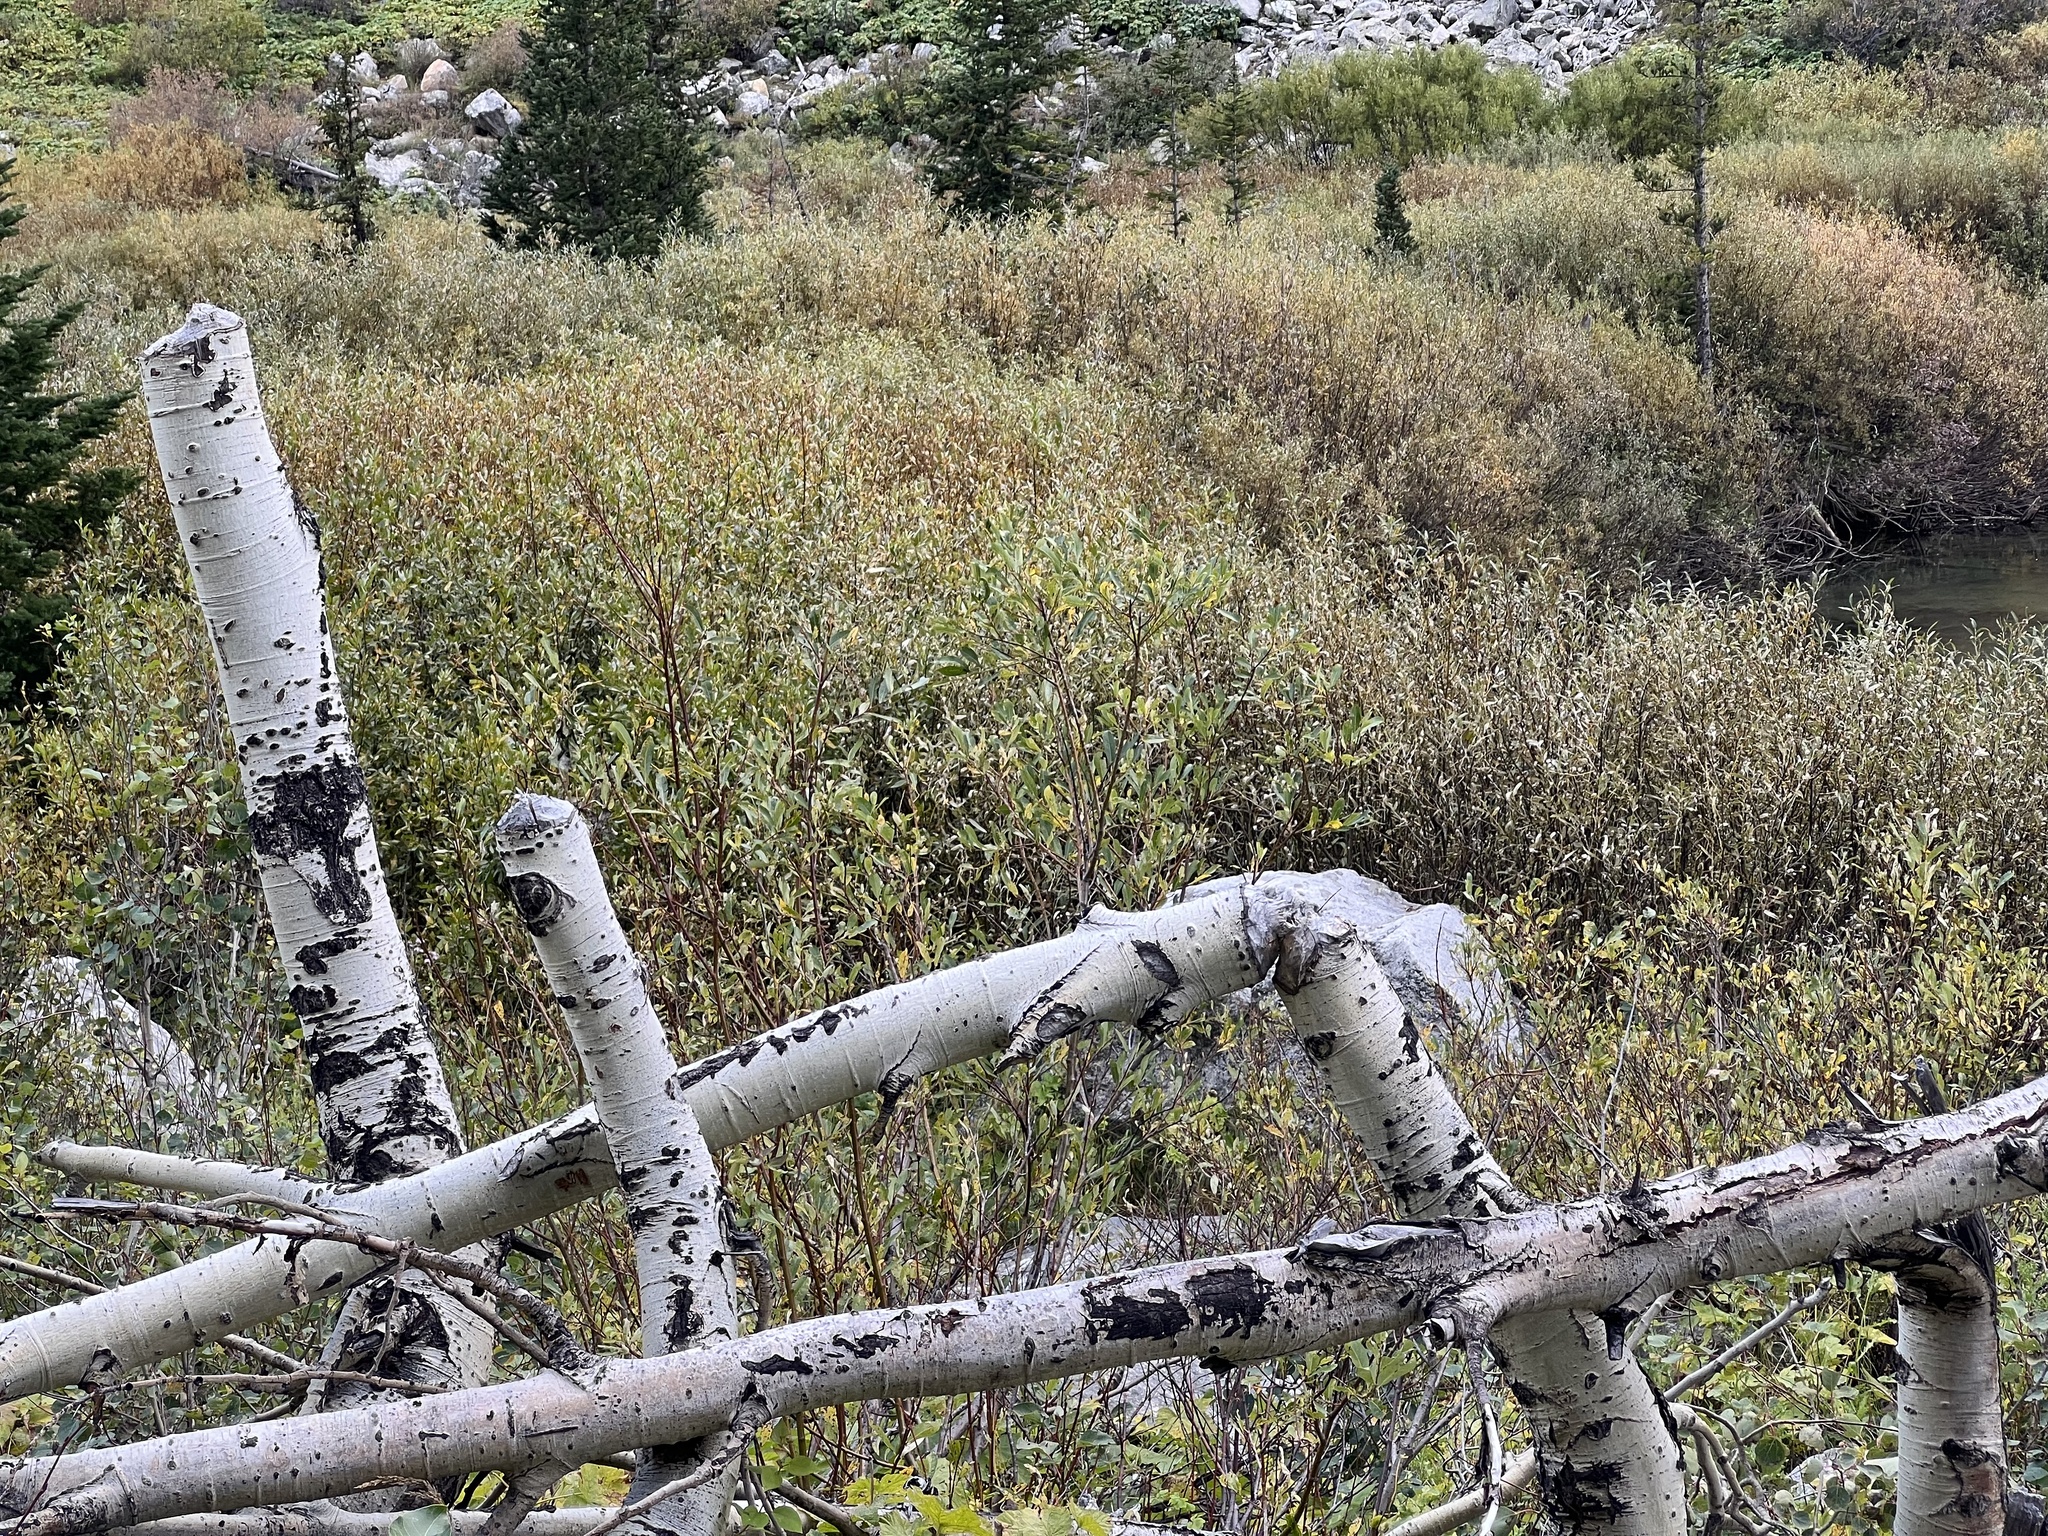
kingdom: Animalia
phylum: Chordata
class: Mammalia
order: Rodentia
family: Castoridae
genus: Castor
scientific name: Castor canadensis
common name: American beaver
